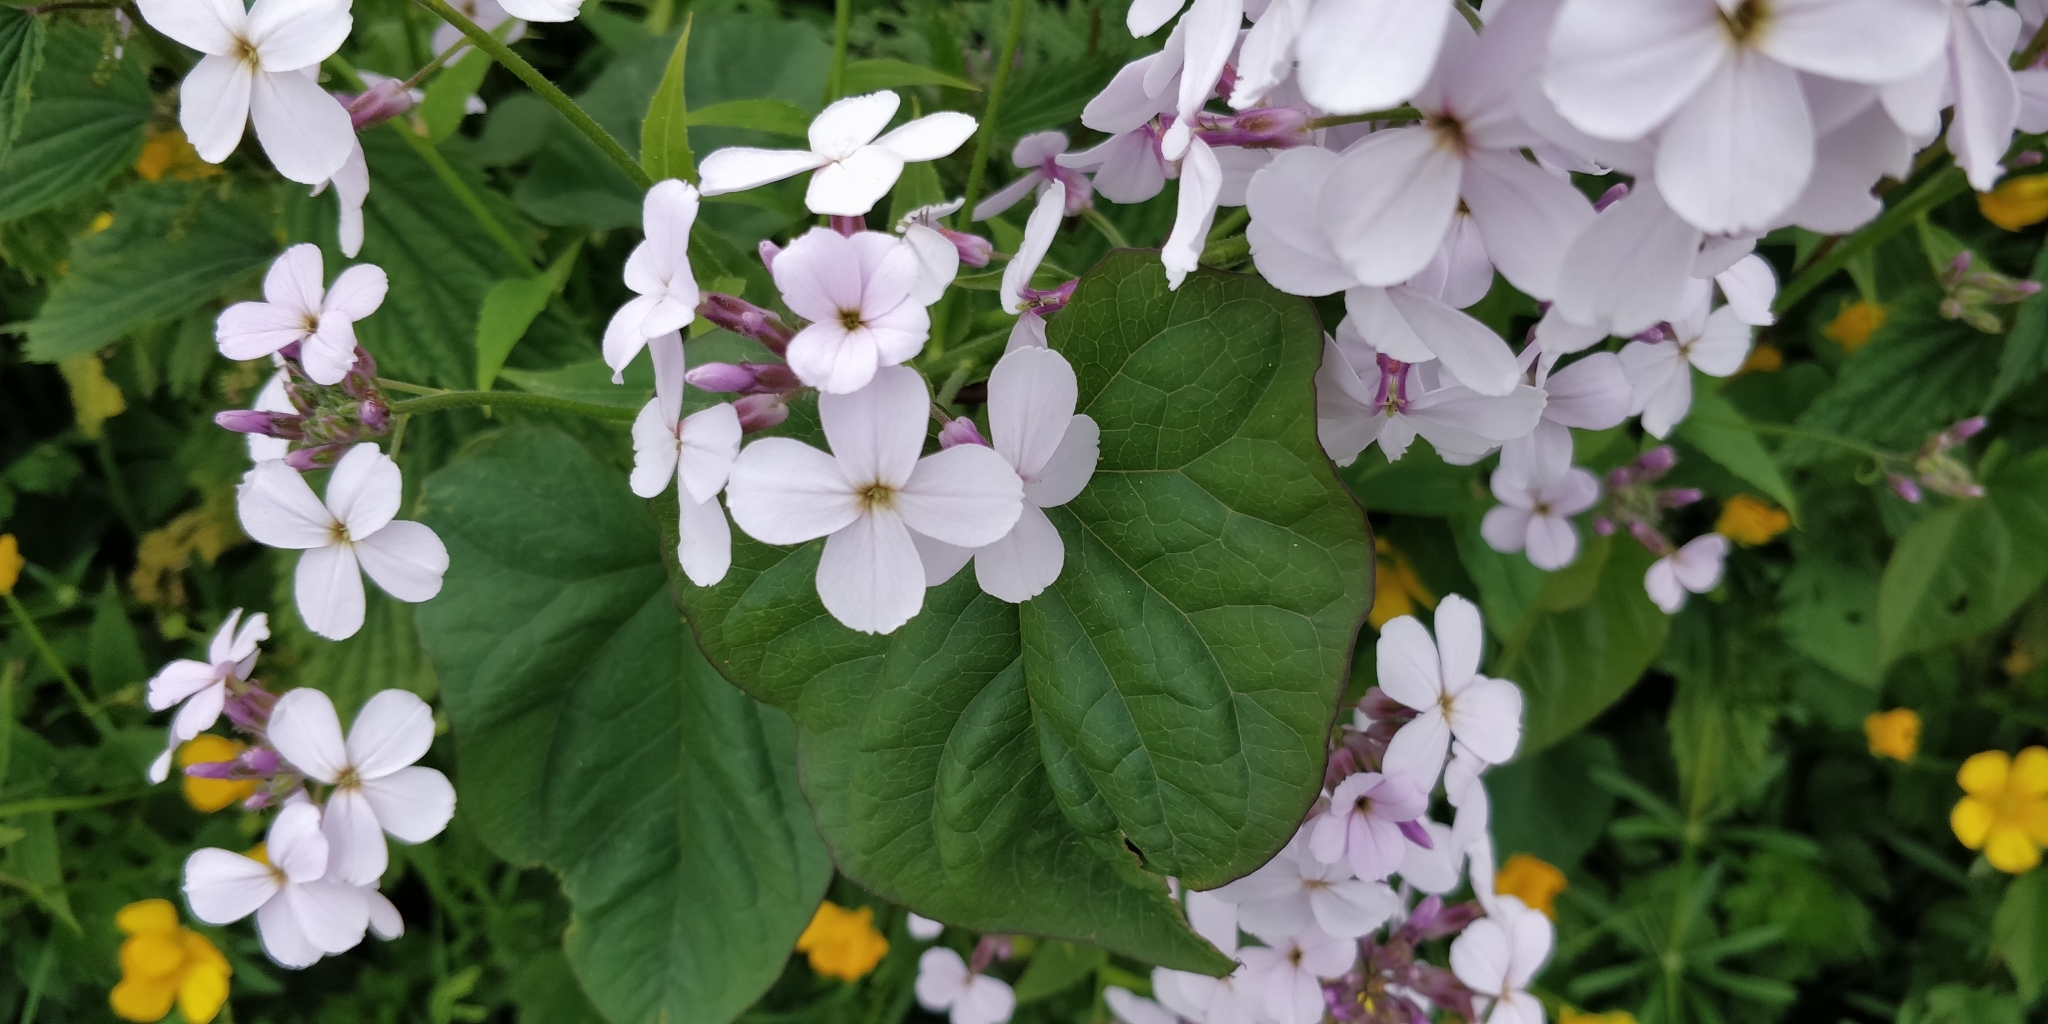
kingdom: Plantae
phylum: Tracheophyta
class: Magnoliopsida
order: Brassicales
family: Brassicaceae
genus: Hesperis
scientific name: Hesperis matronalis
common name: Dame's-violet
